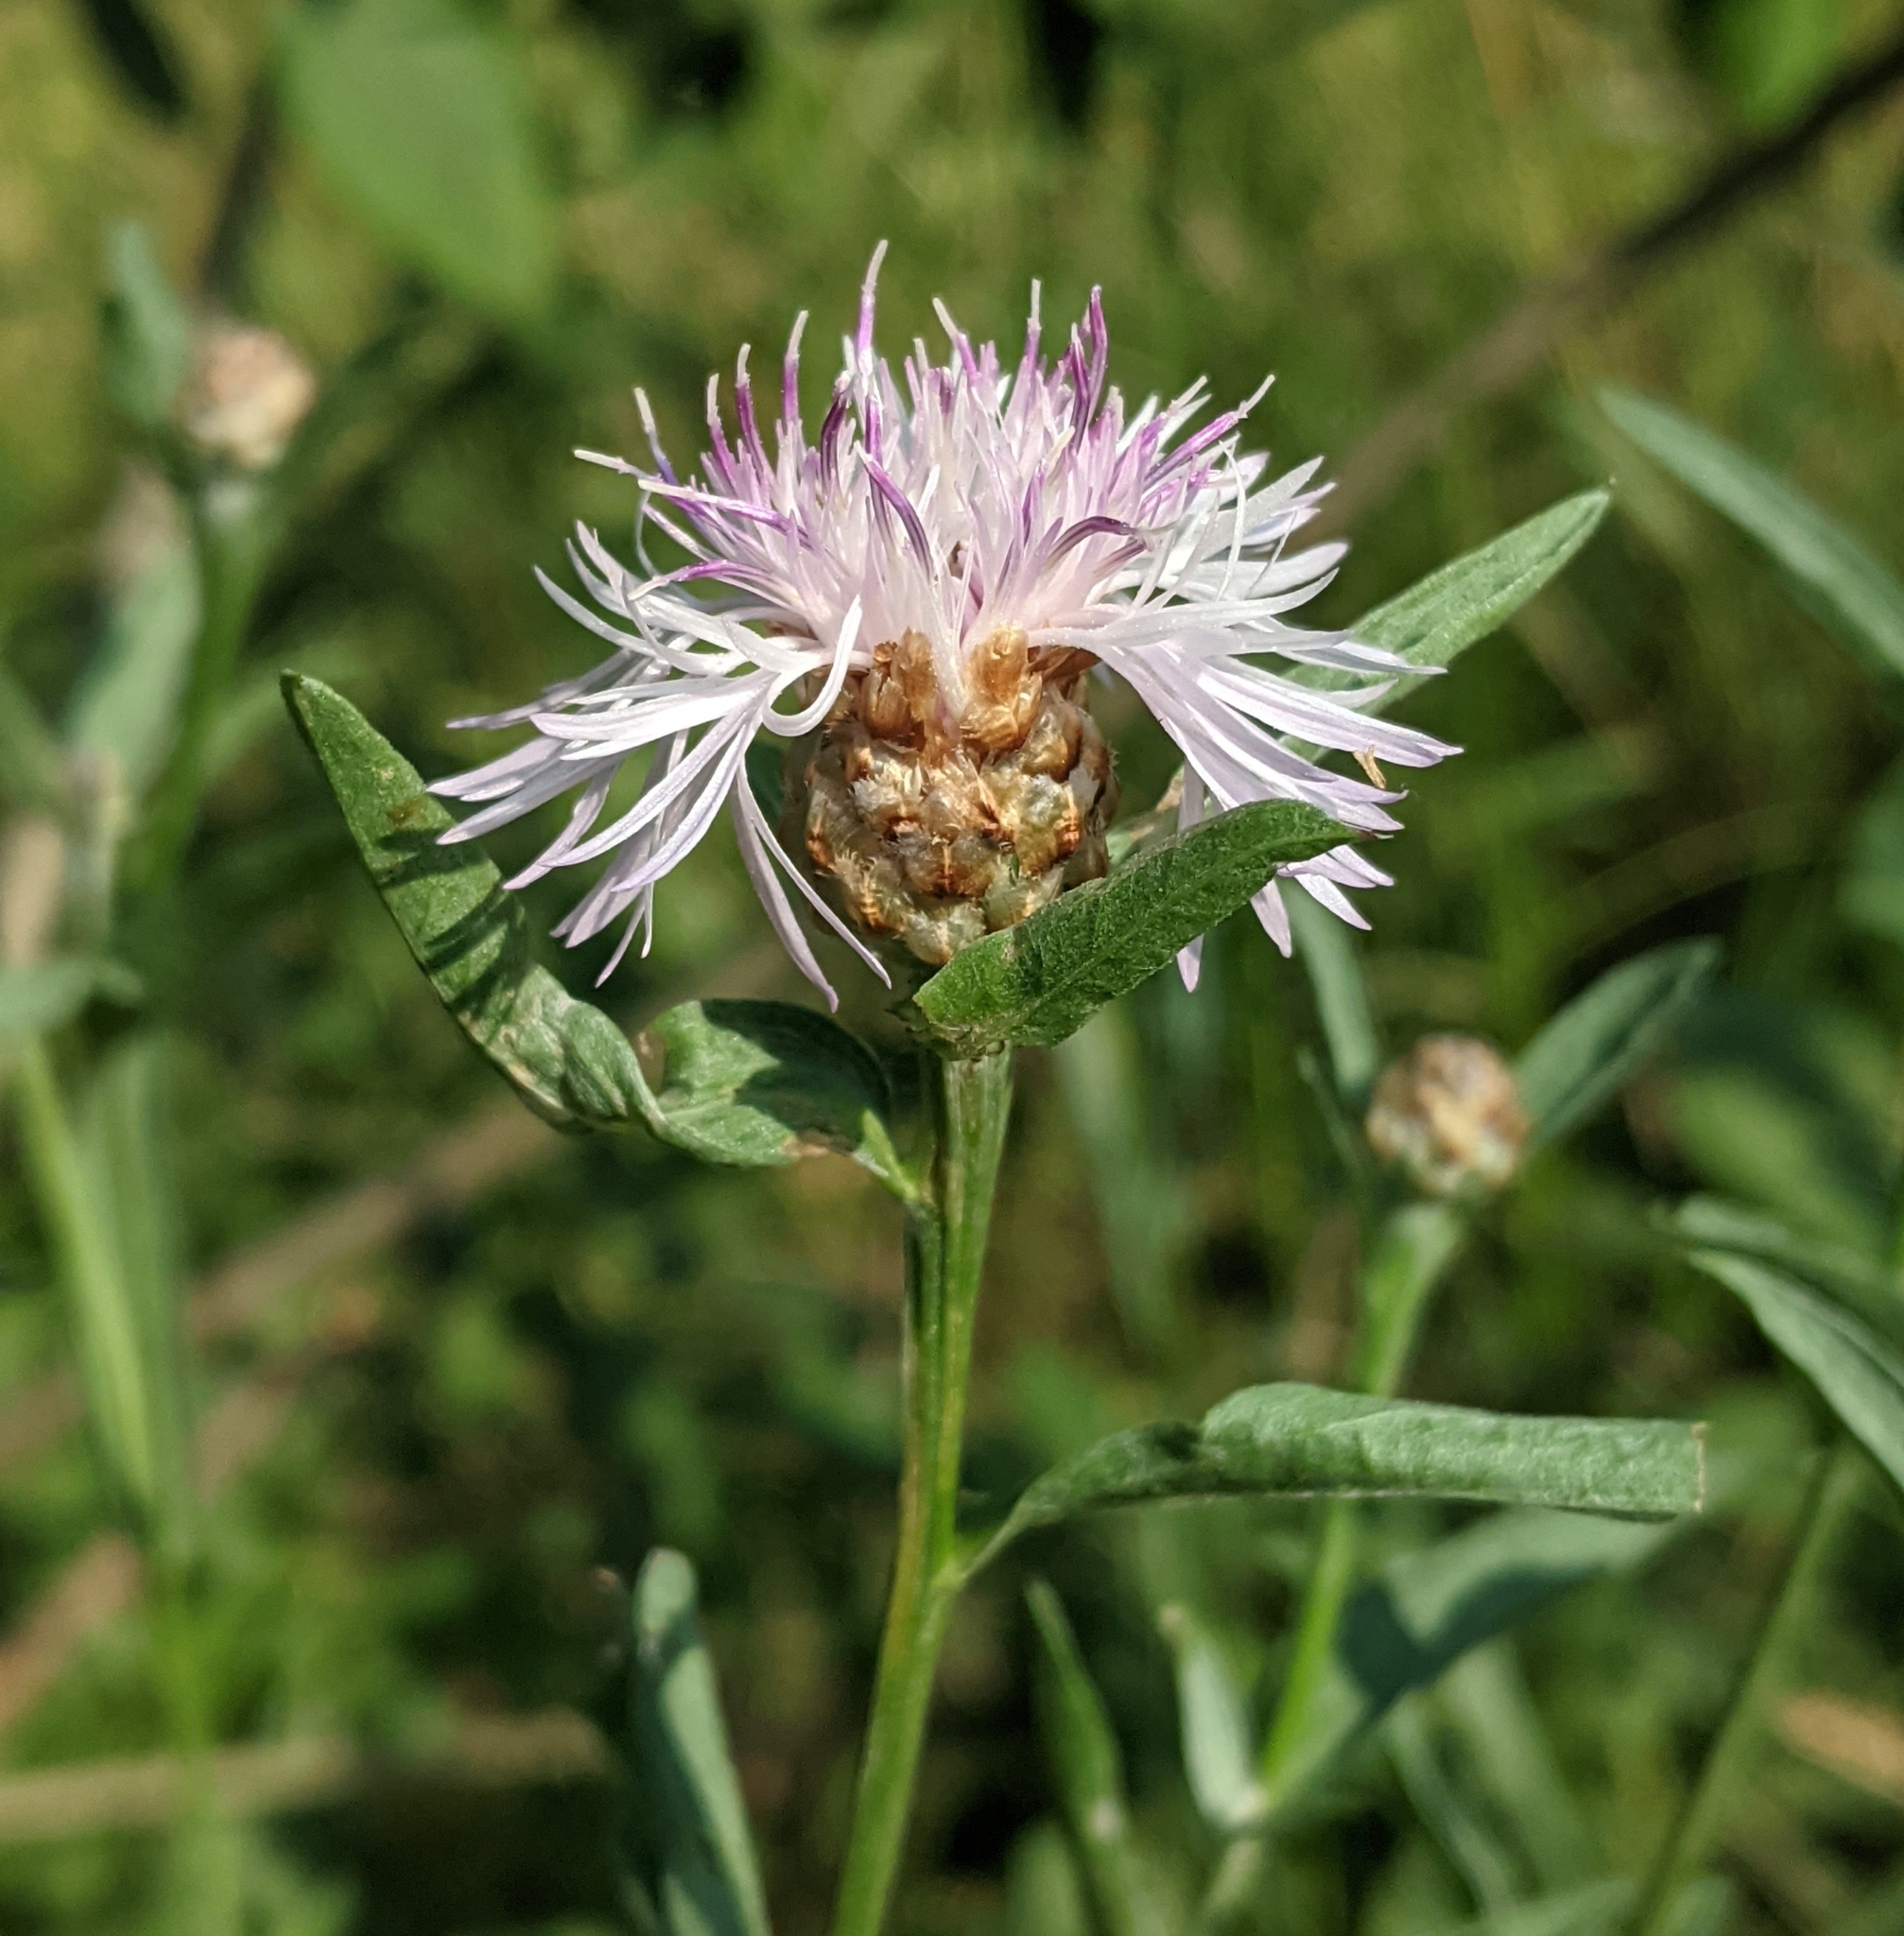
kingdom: Plantae
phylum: Tracheophyta
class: Magnoliopsida
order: Asterales
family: Asteraceae
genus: Centaurea
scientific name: Centaurea jacea
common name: Brown knapweed
